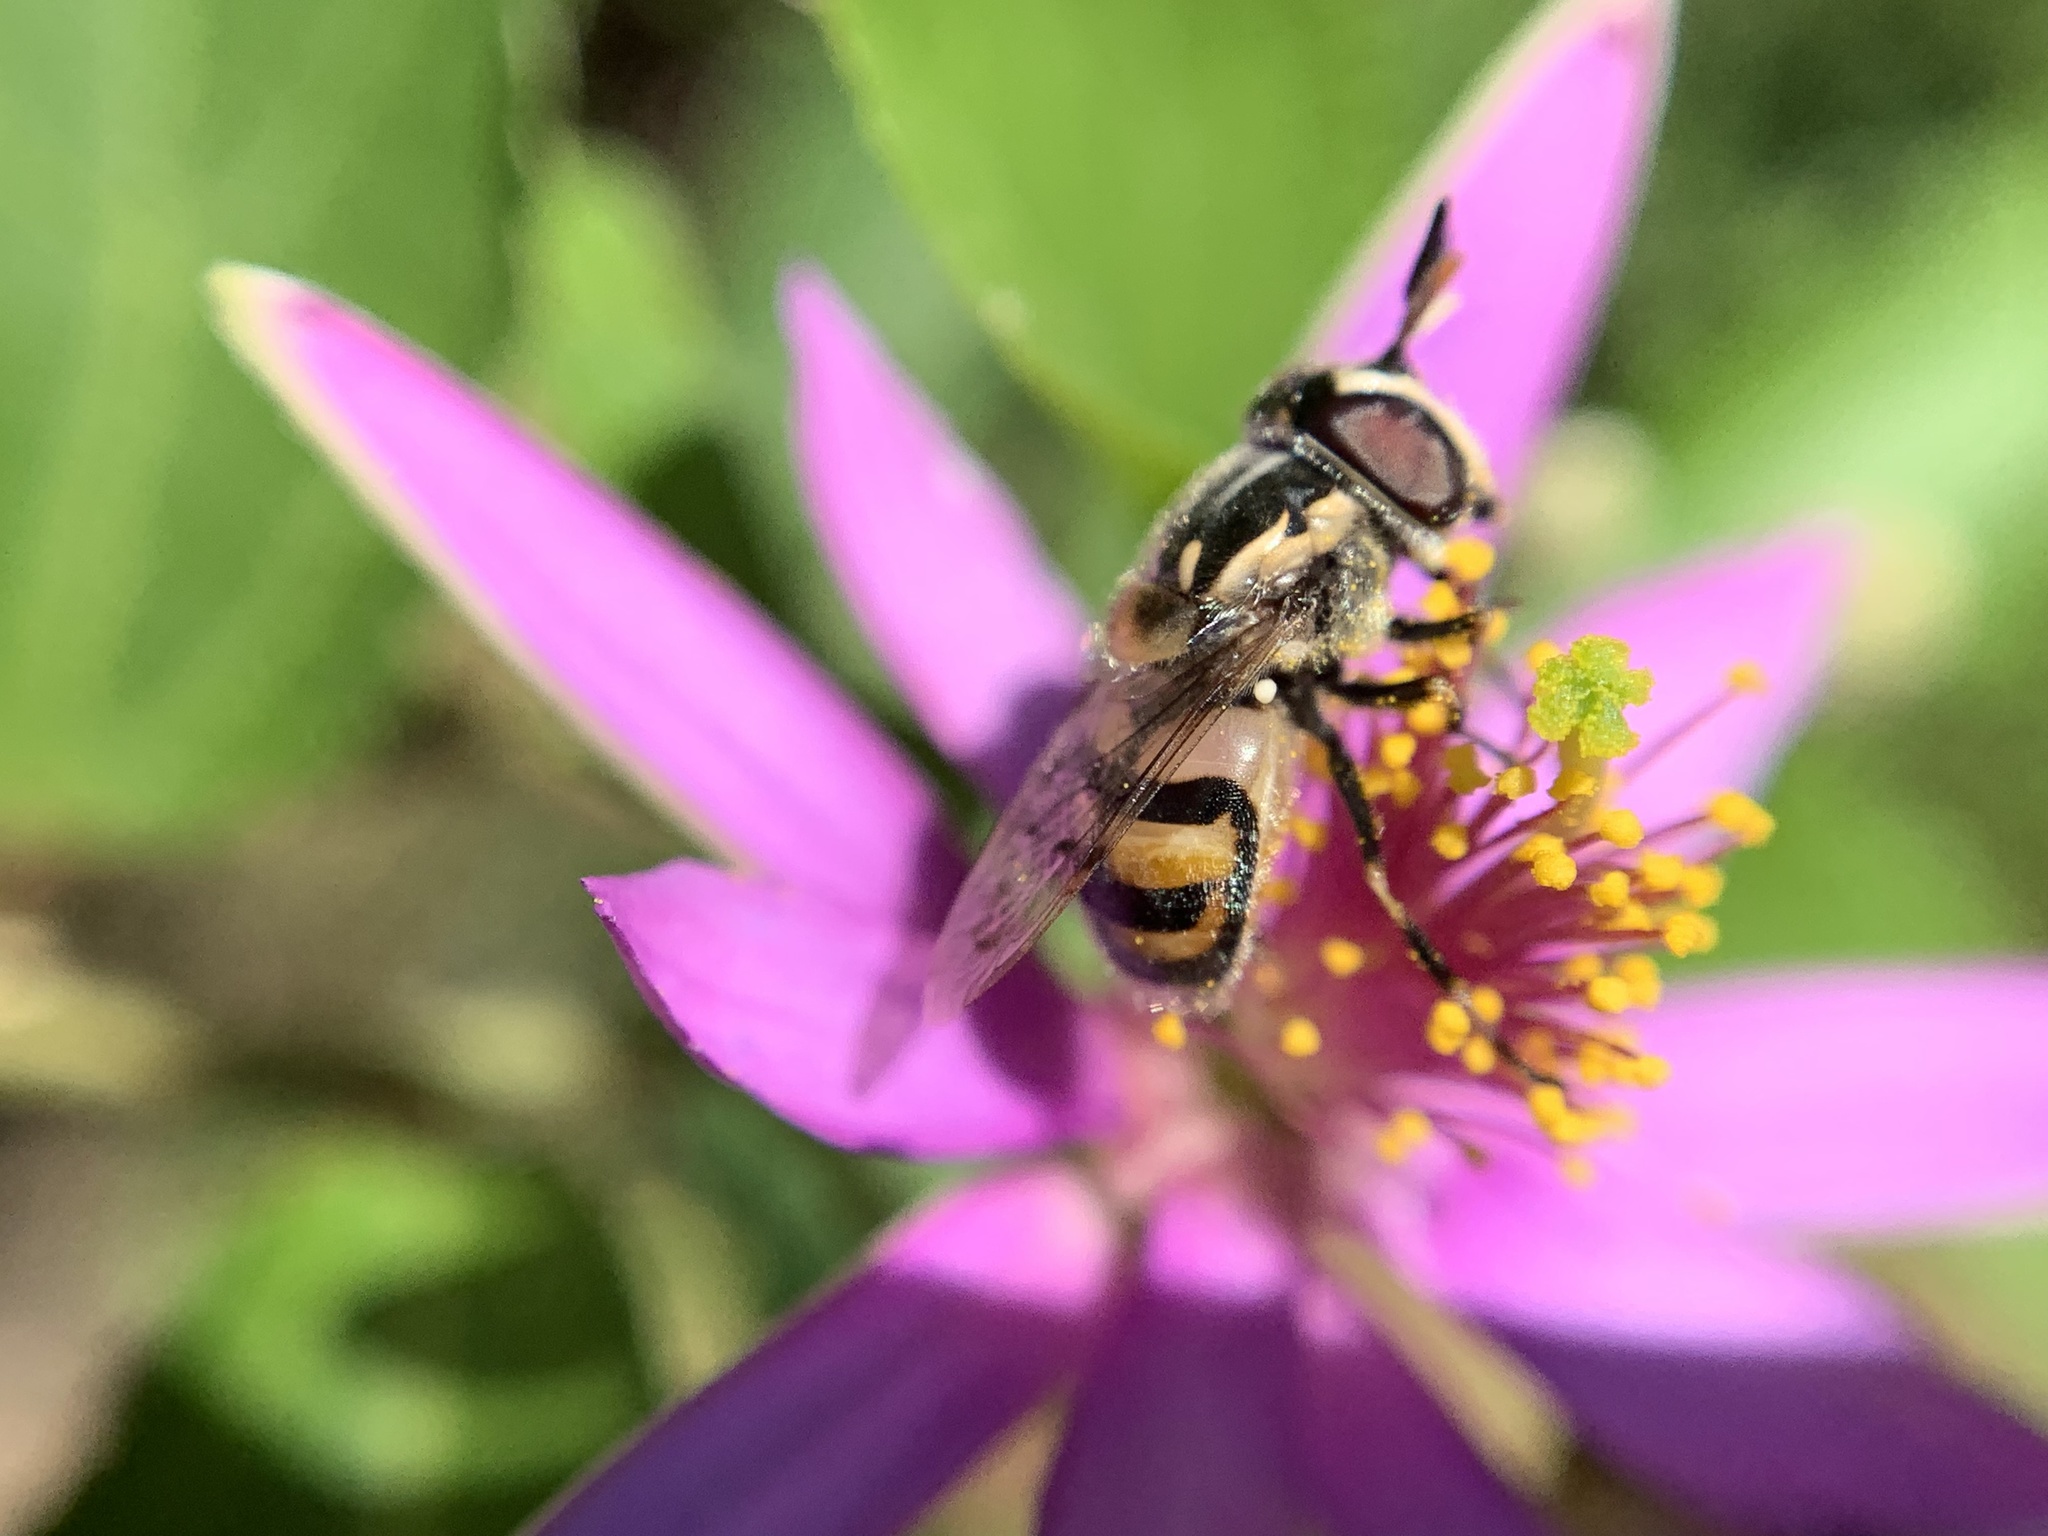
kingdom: Animalia
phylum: Arthropoda
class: Insecta
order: Diptera
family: Syrphidae
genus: Copestylum
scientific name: Copestylum marginatum
